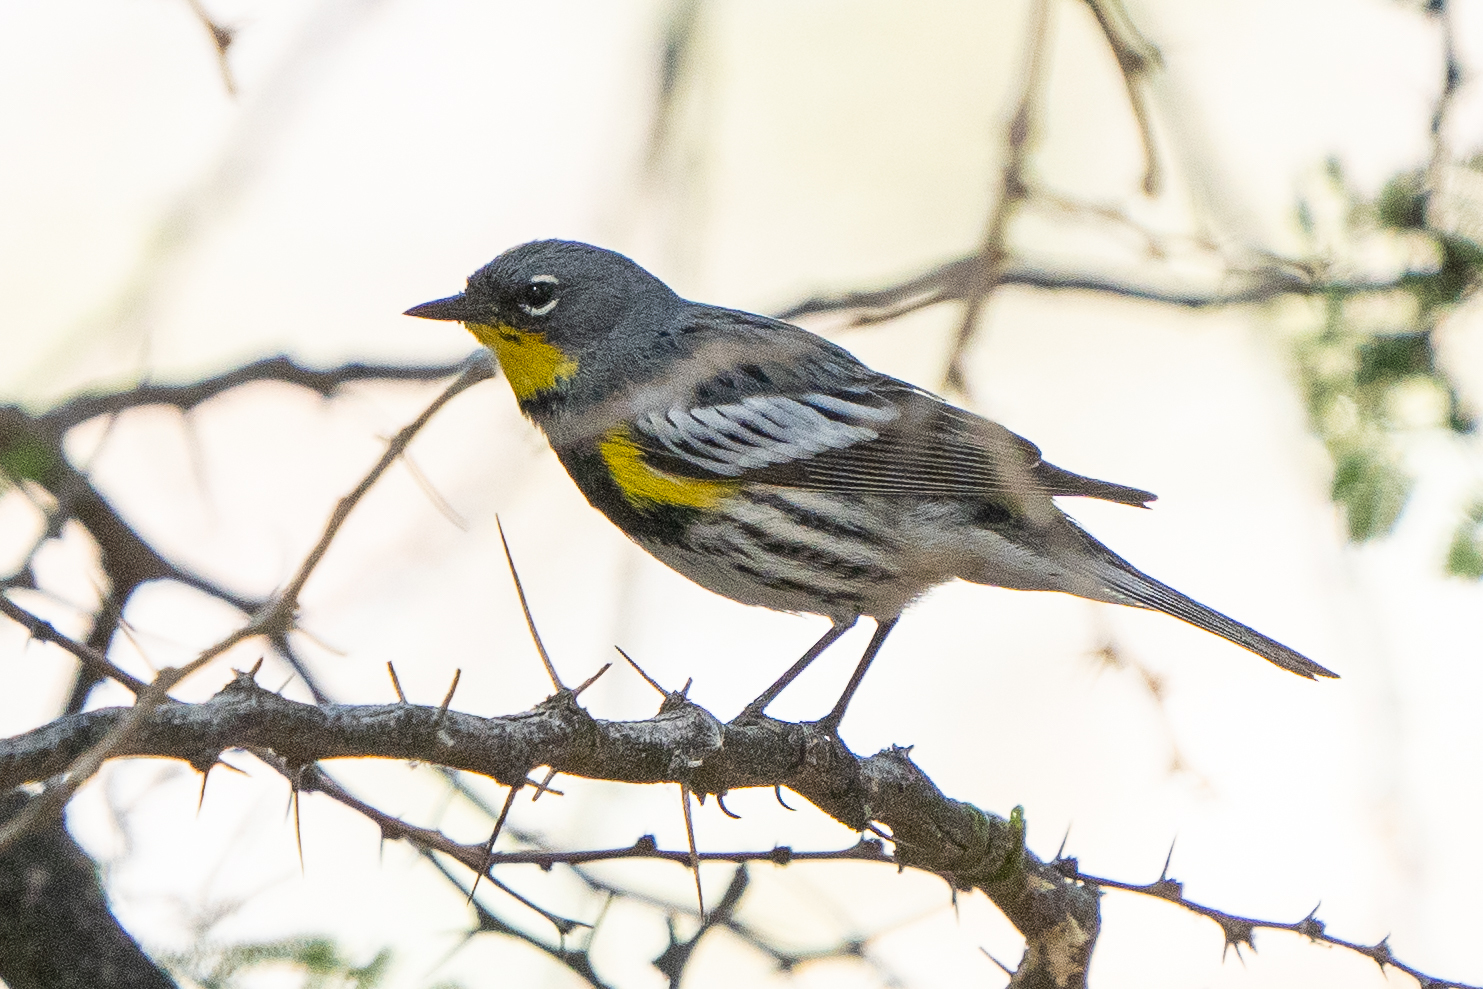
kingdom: Animalia
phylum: Chordata
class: Aves
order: Passeriformes
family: Parulidae
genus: Setophaga
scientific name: Setophaga coronata
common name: Myrtle warbler
